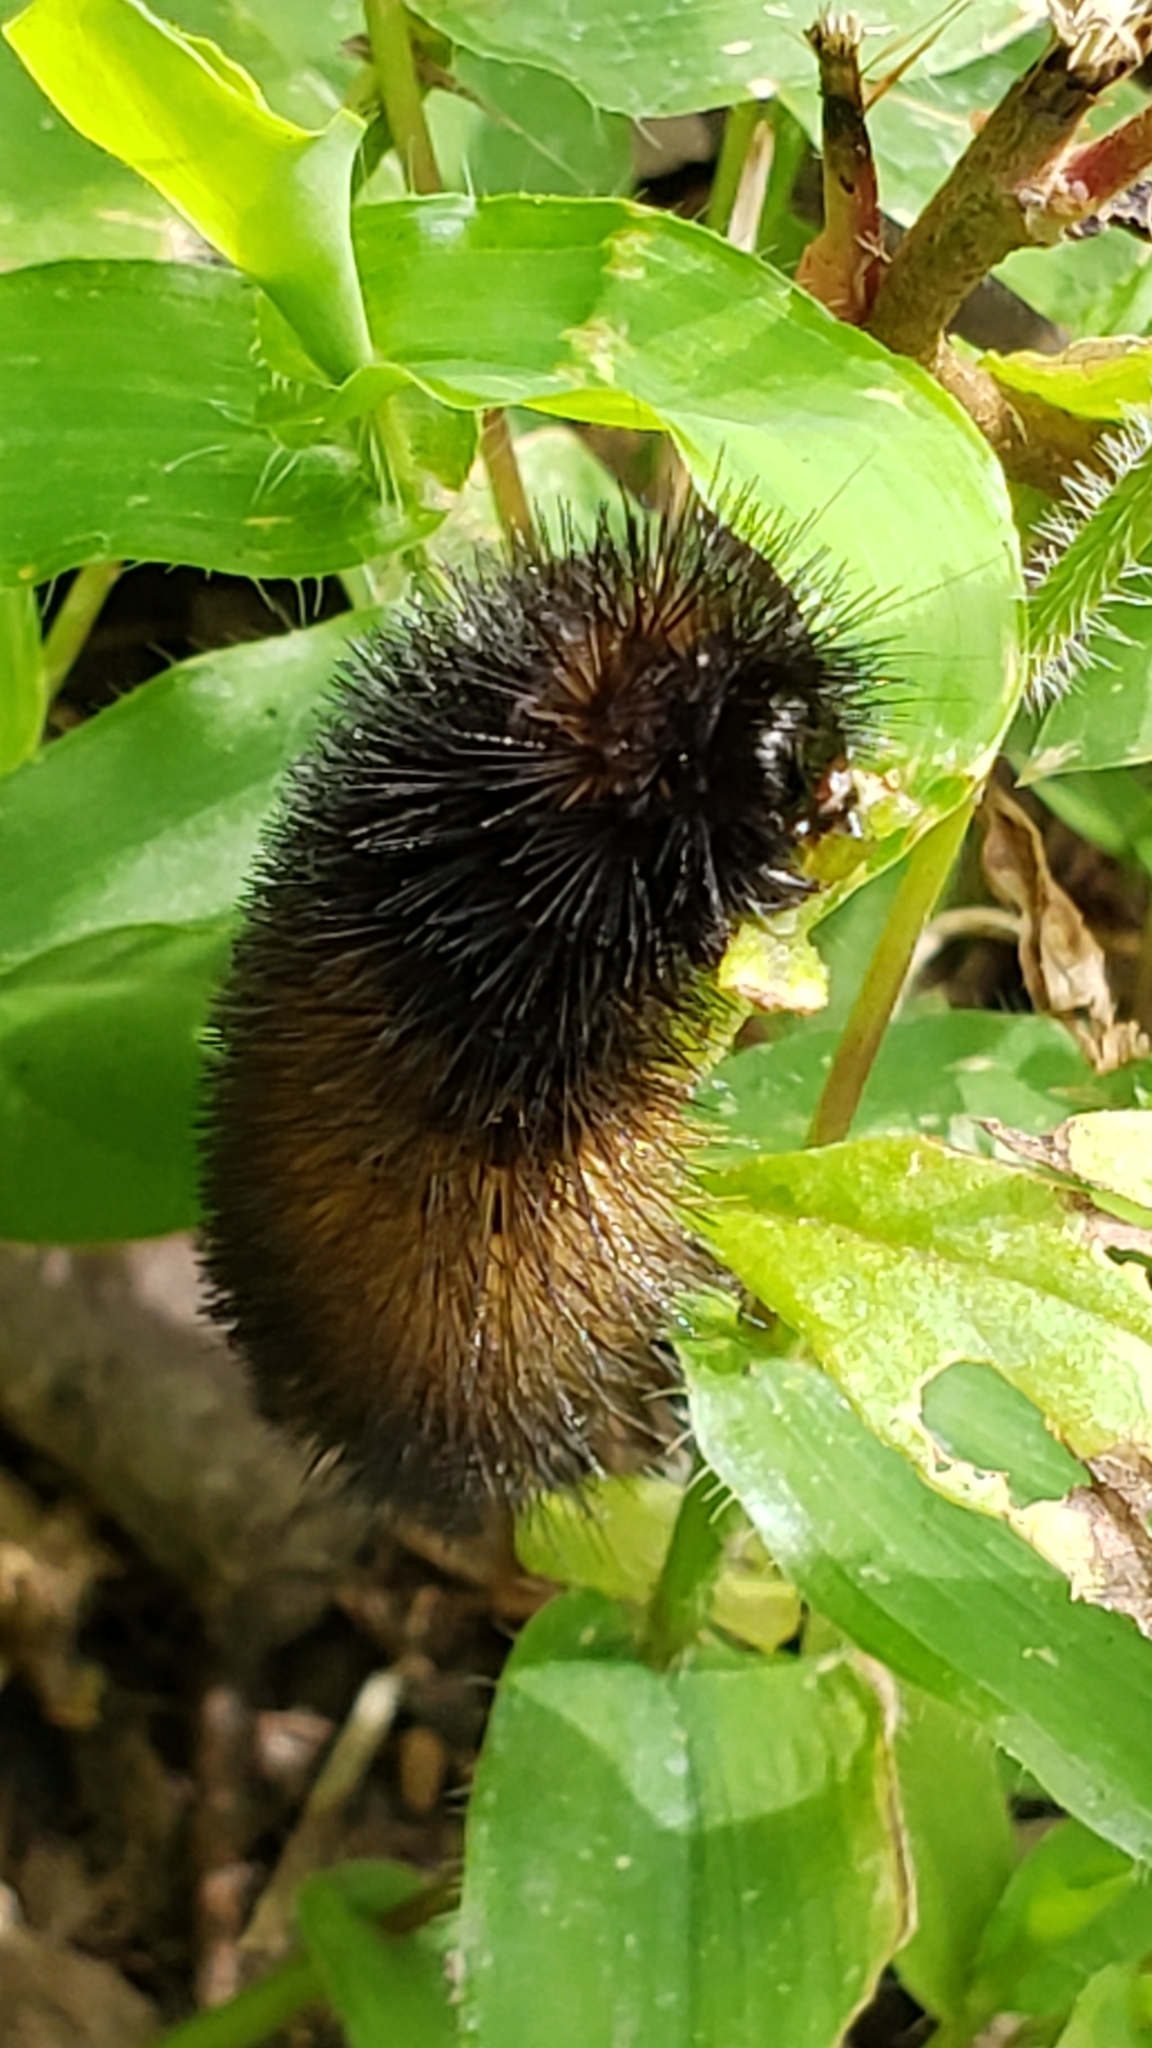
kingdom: Animalia
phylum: Arthropoda
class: Insecta
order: Lepidoptera
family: Erebidae
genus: Pyrrharctia
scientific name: Pyrrharctia isabella
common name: Isabella tiger moth
